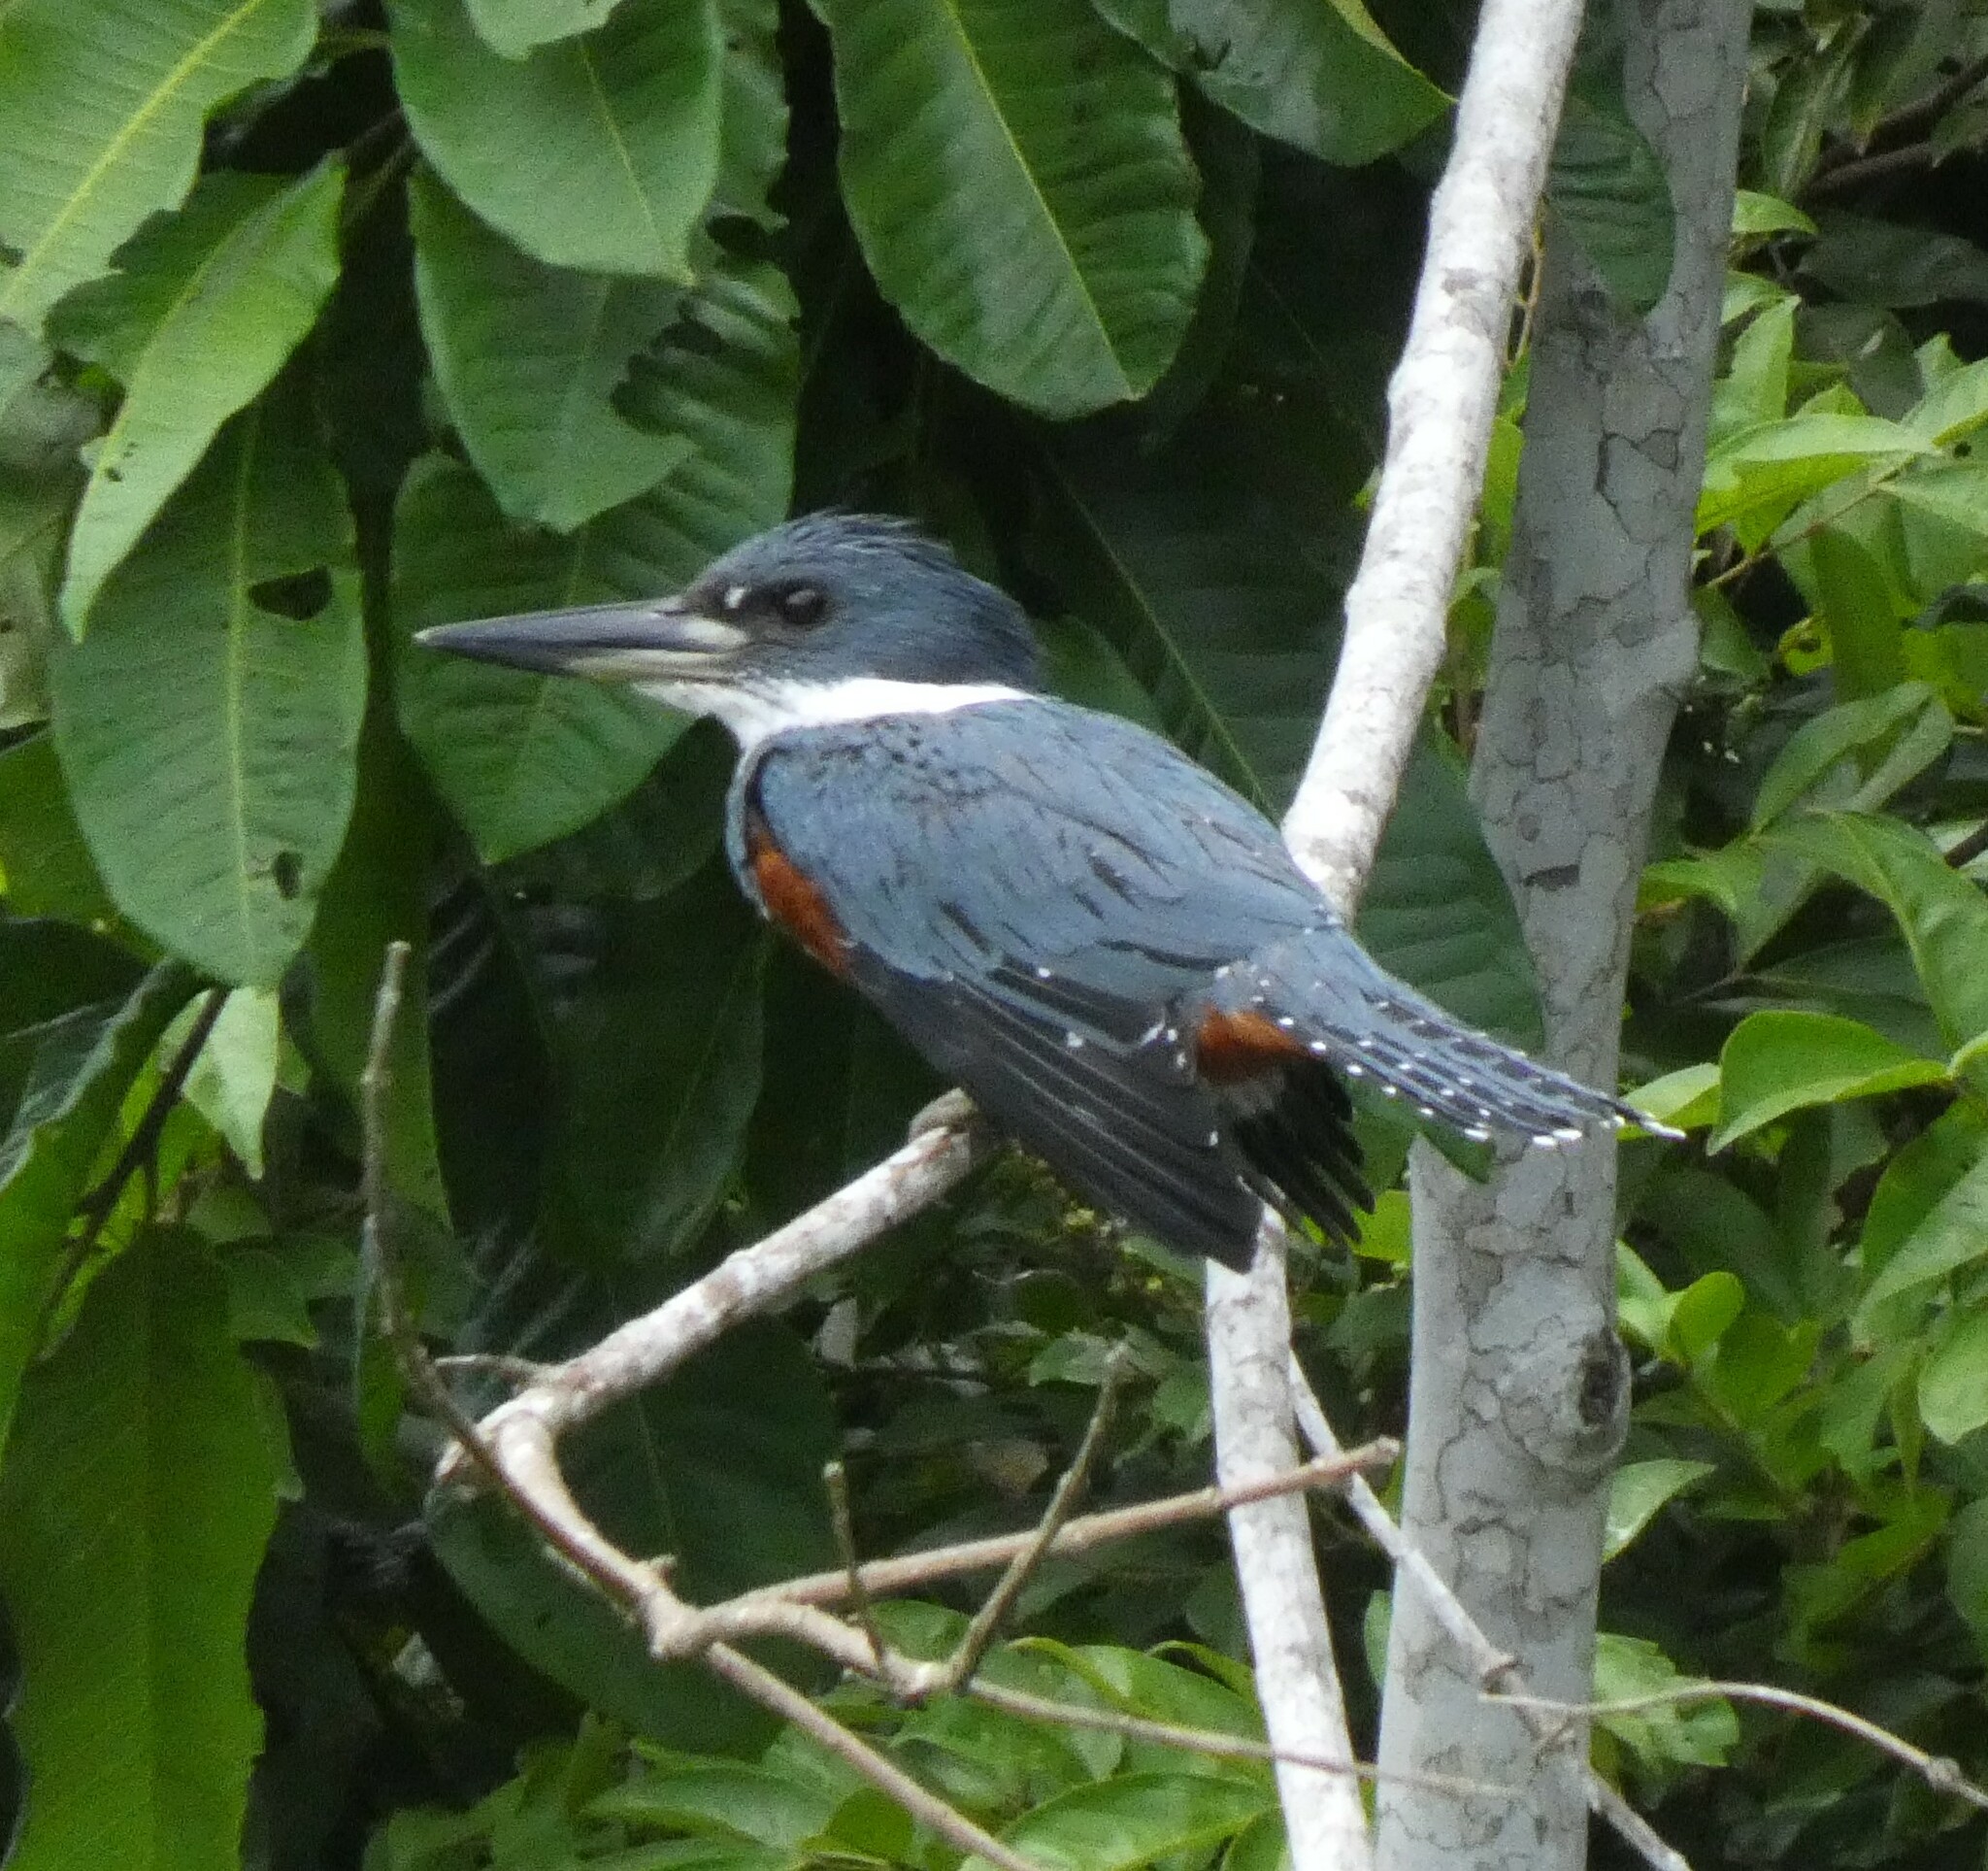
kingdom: Animalia
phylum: Chordata
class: Aves
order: Coraciiformes
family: Alcedinidae
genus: Megaceryle
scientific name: Megaceryle torquata
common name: Ringed kingfisher
